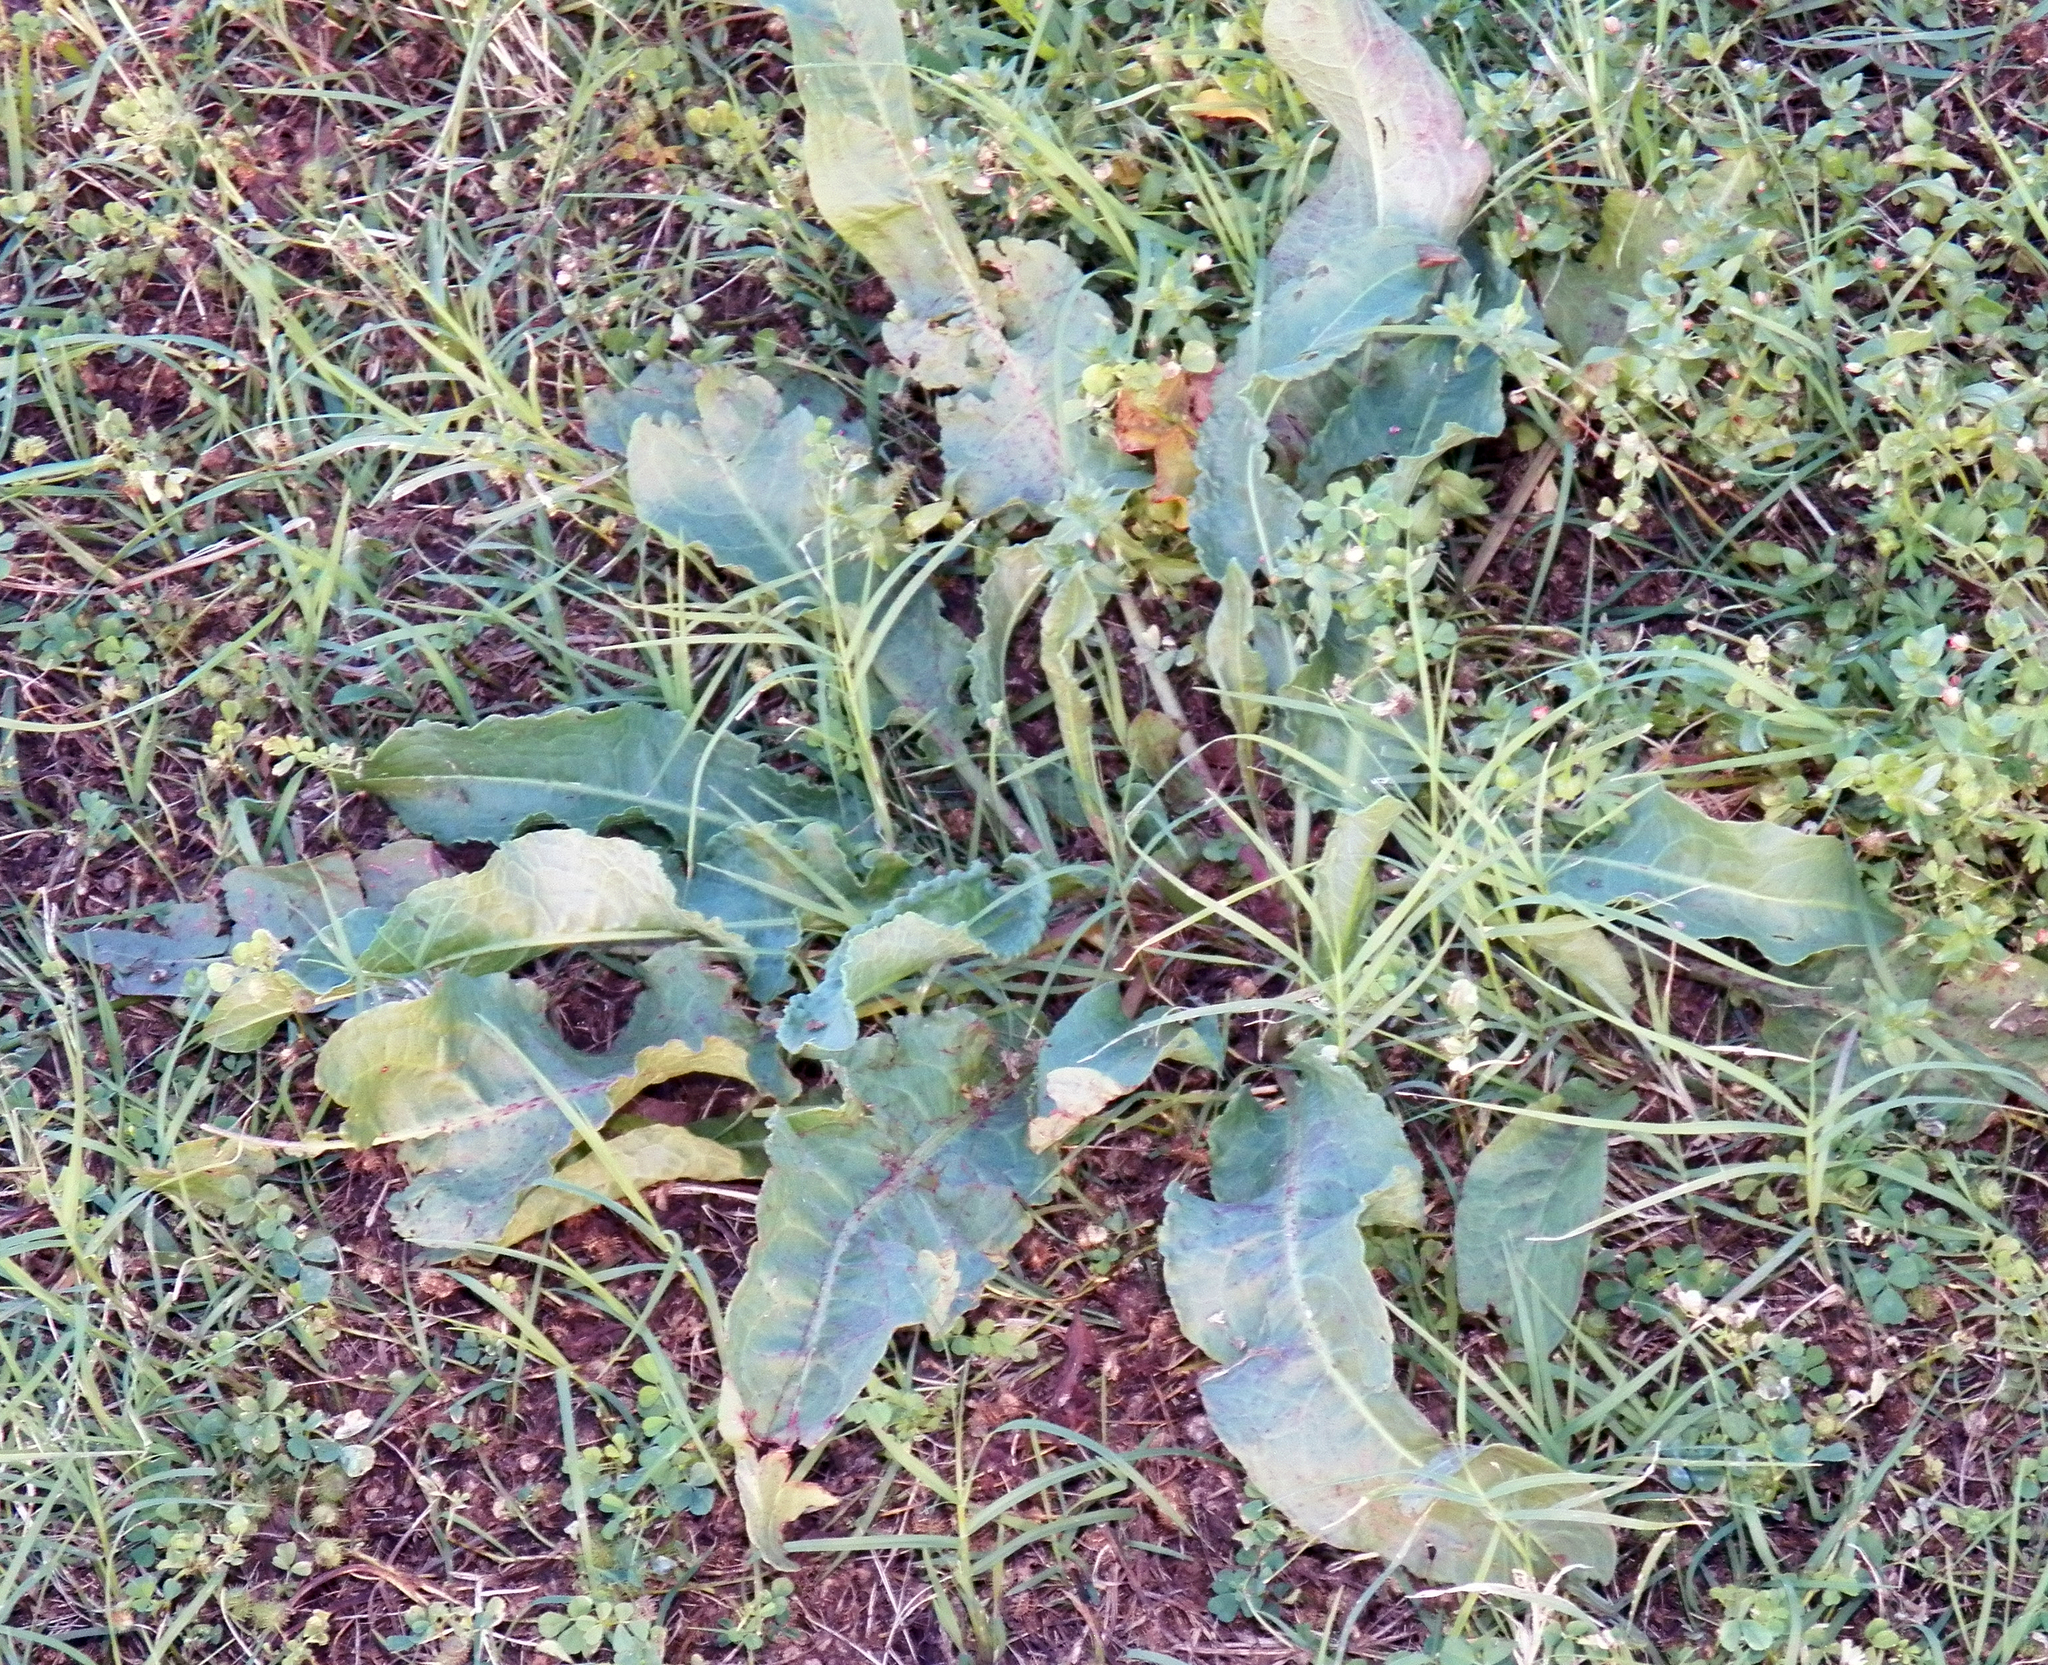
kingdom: Plantae
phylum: Tracheophyta
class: Magnoliopsida
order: Caryophyllales
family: Polygonaceae
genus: Rumex
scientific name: Rumex crispus
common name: Curled dock
